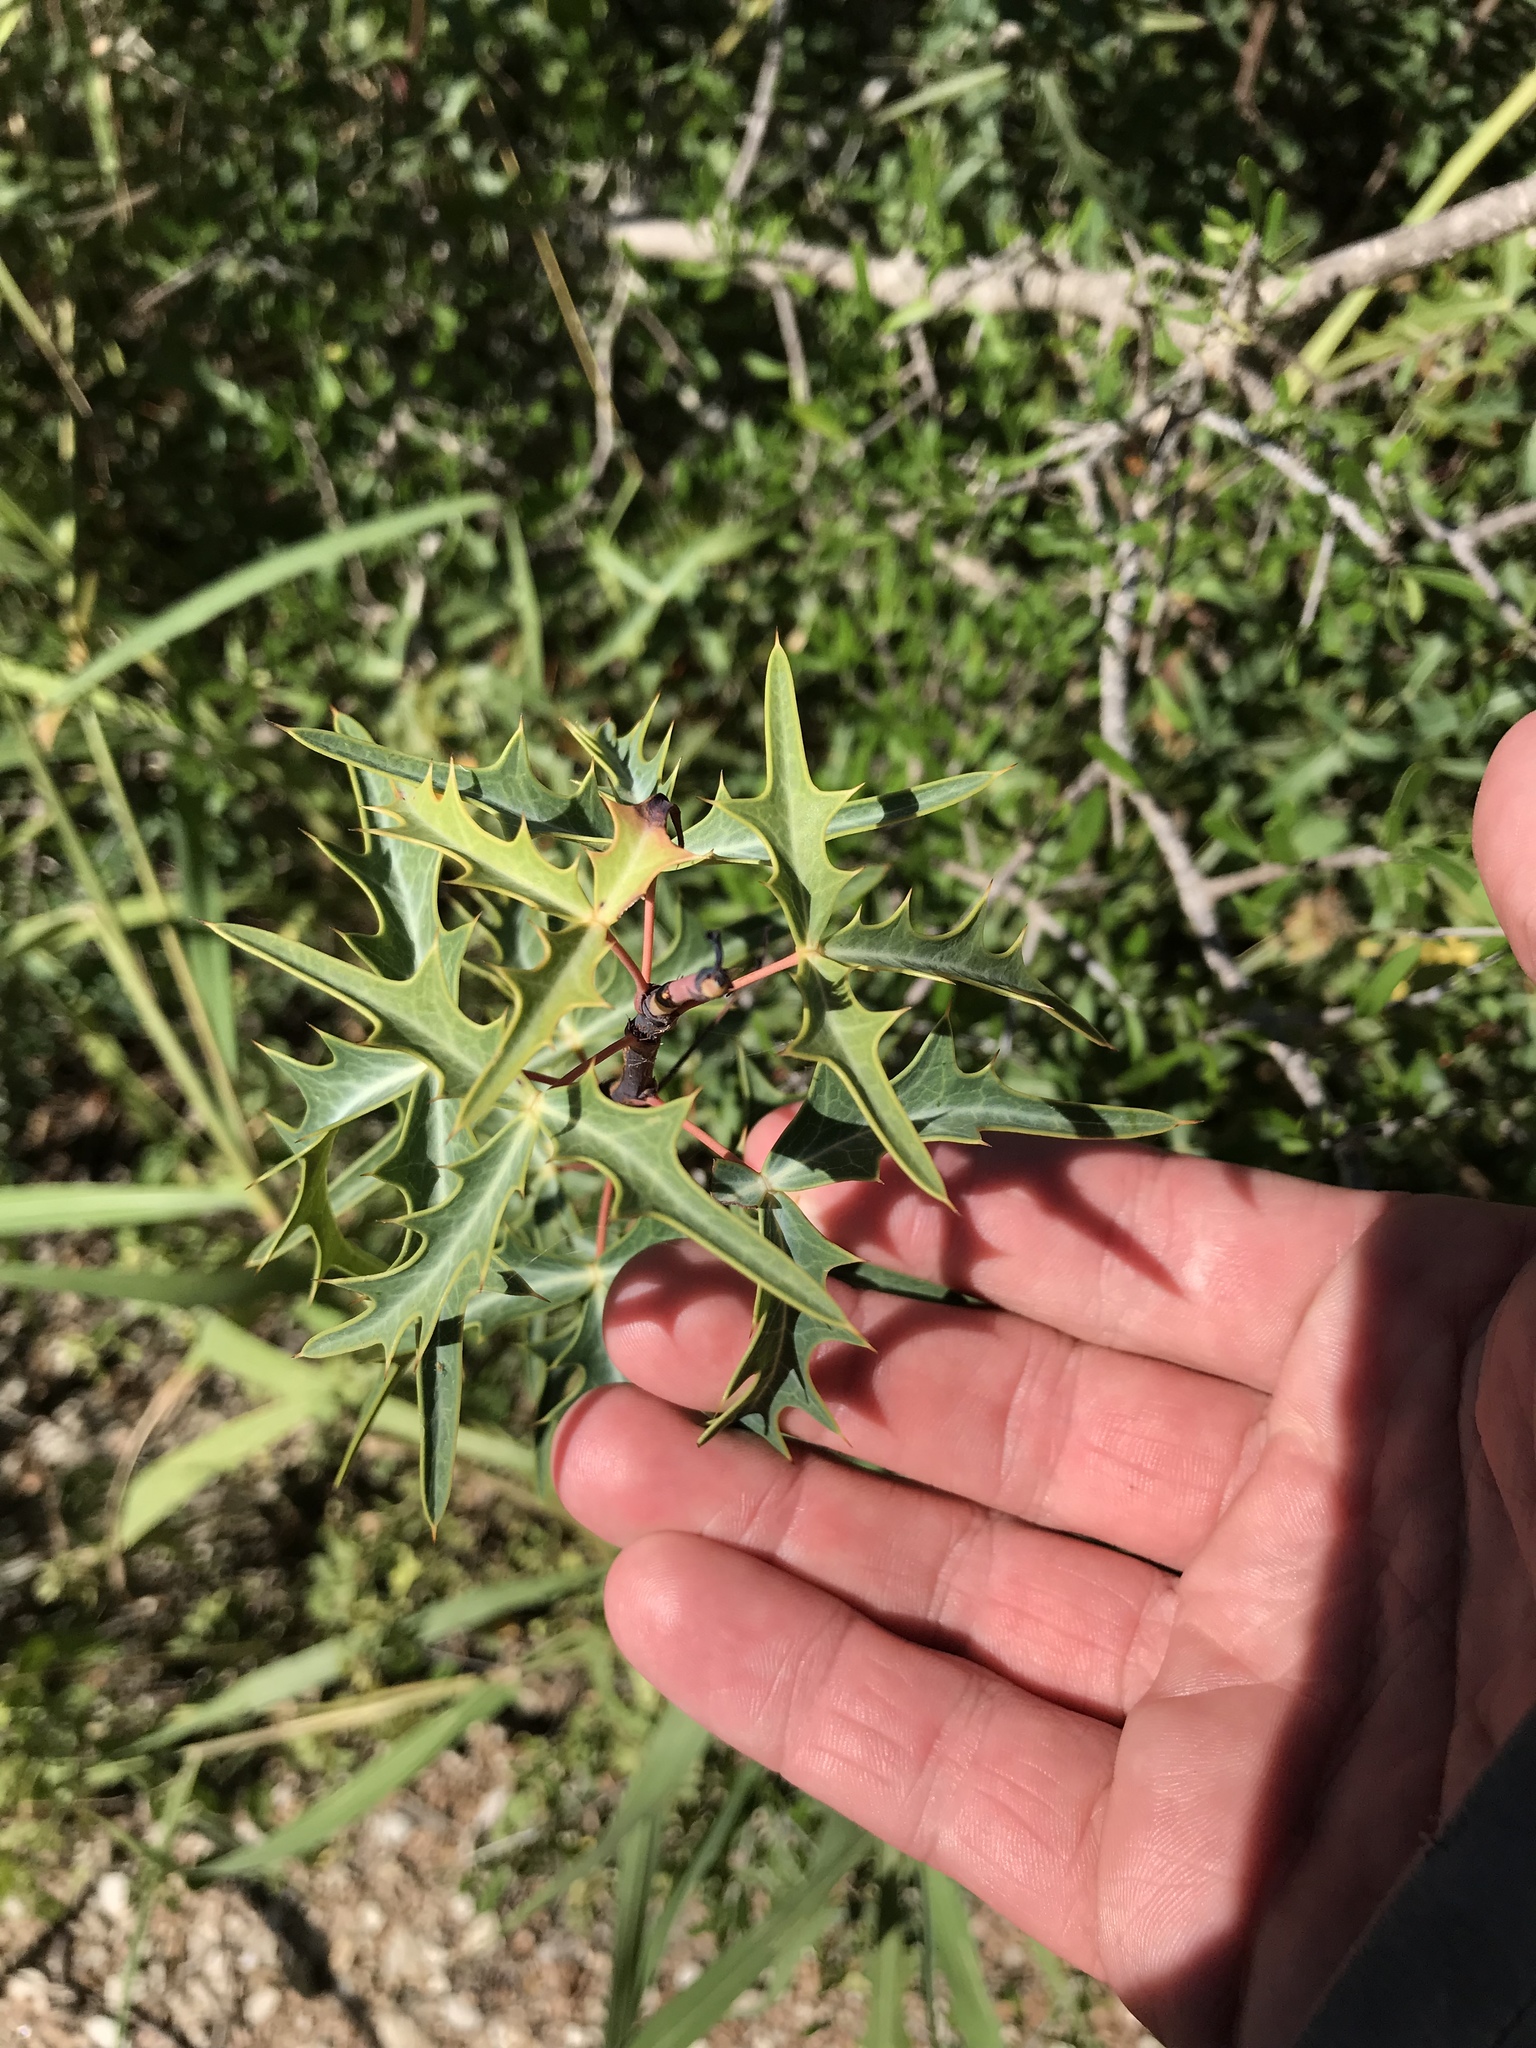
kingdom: Plantae
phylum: Tracheophyta
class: Magnoliopsida
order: Ranunculales
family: Berberidaceae
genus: Alloberberis
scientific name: Alloberberis trifoliolata
